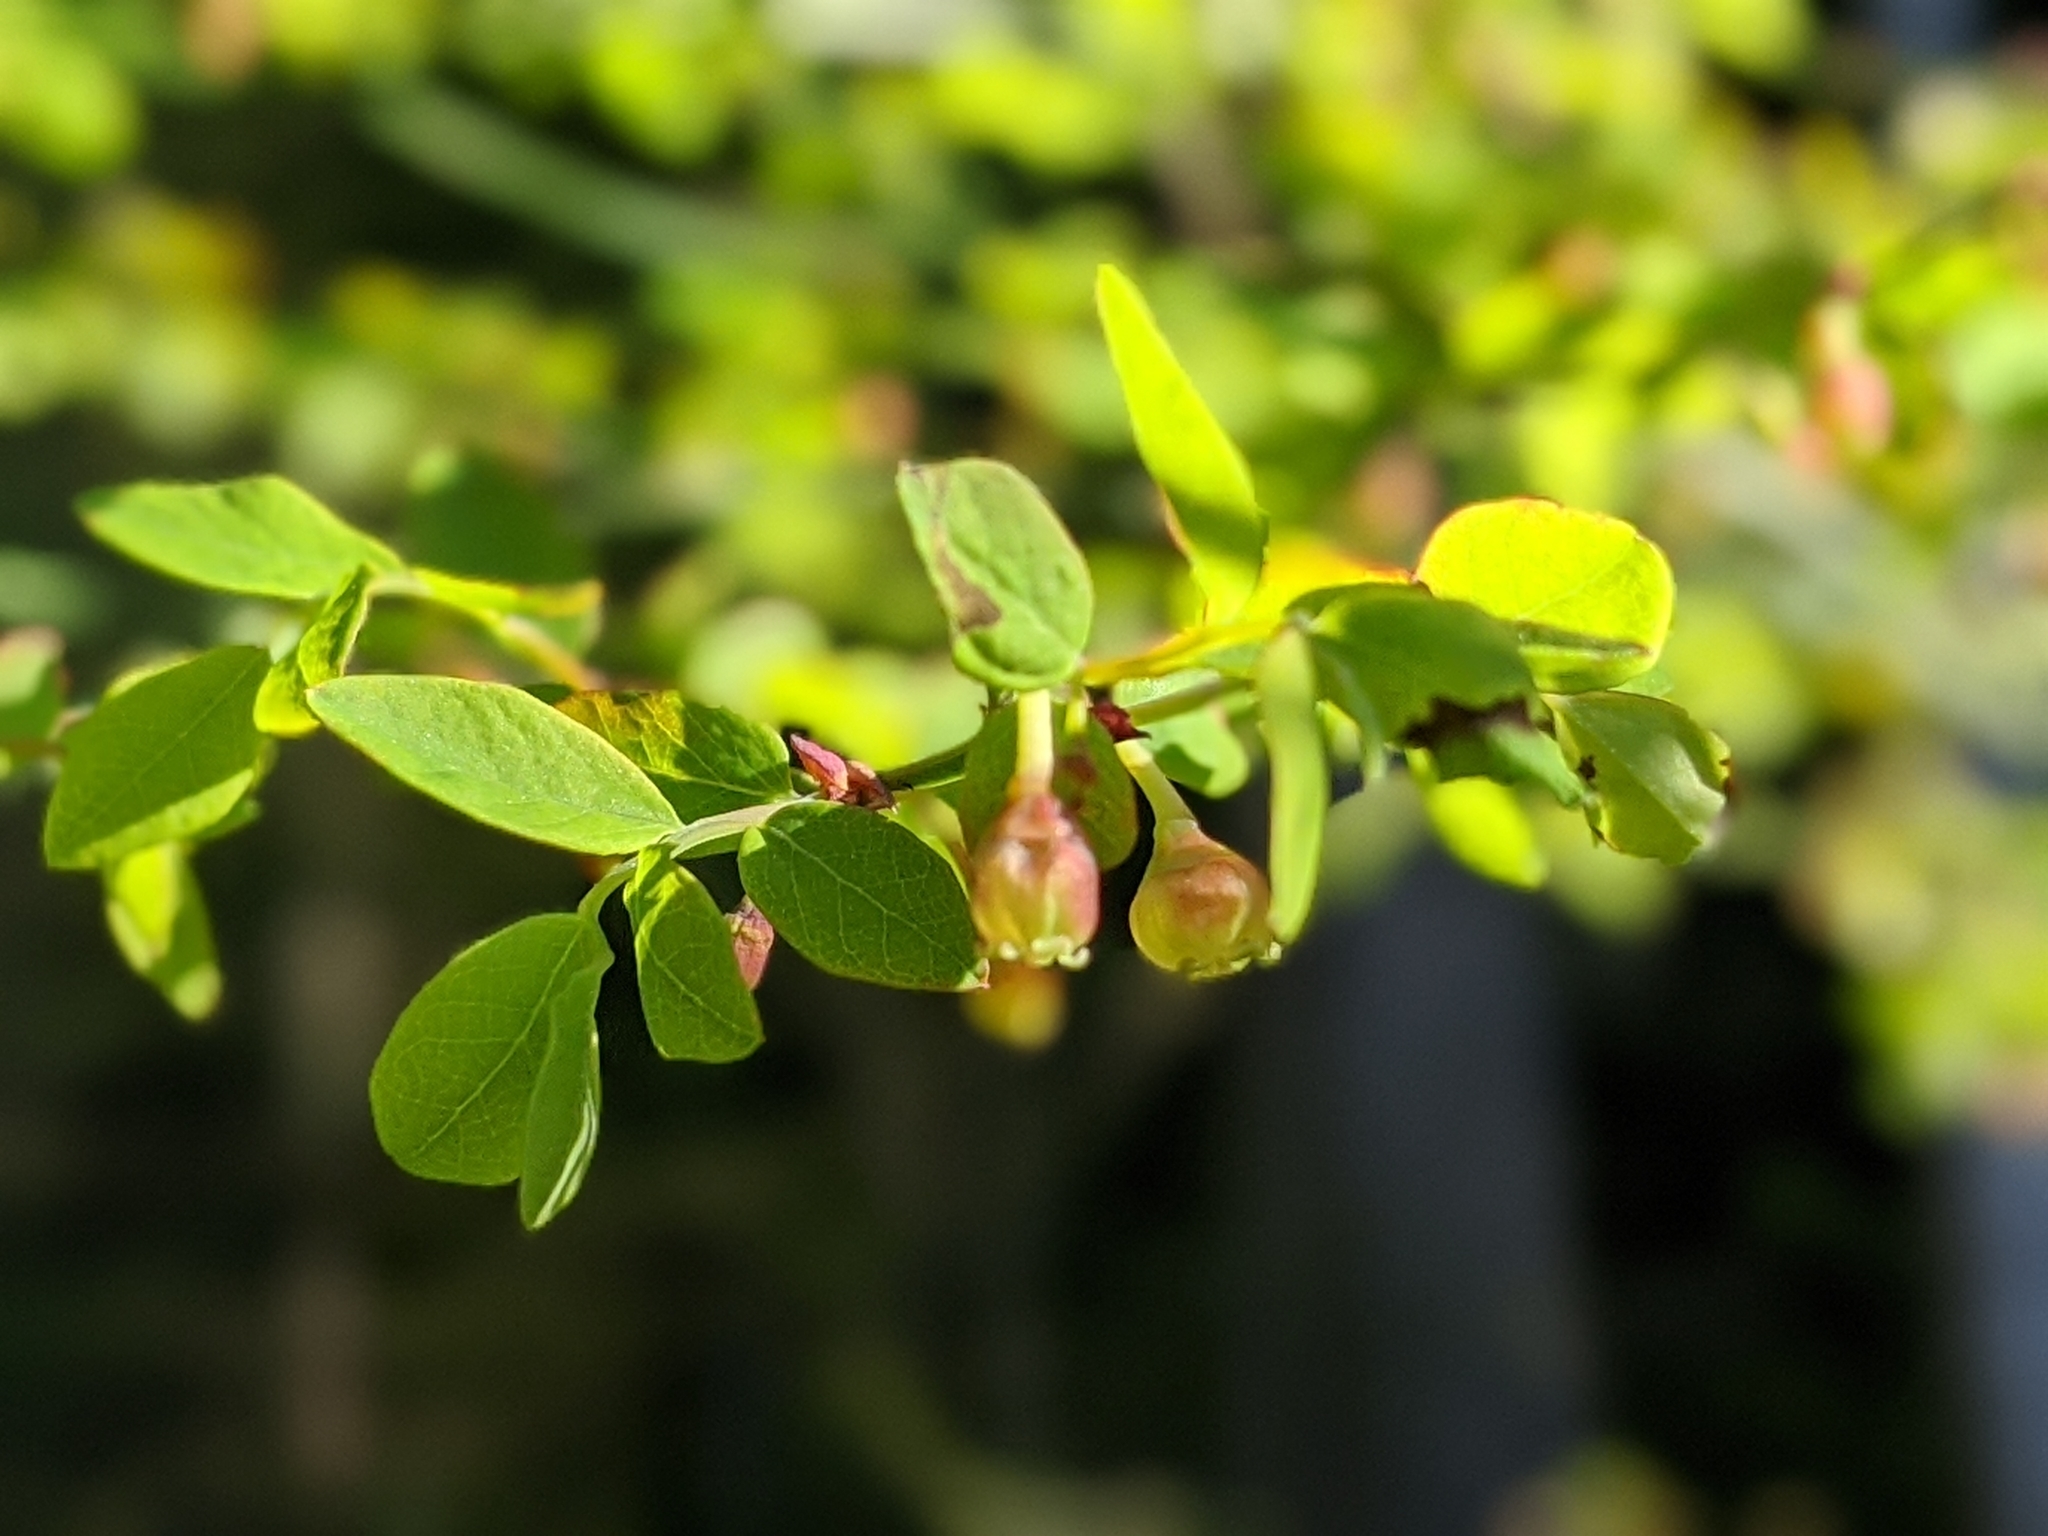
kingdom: Plantae
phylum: Tracheophyta
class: Magnoliopsida
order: Ericales
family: Ericaceae
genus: Vaccinium
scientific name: Vaccinium parvifolium
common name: Red-huckleberry
